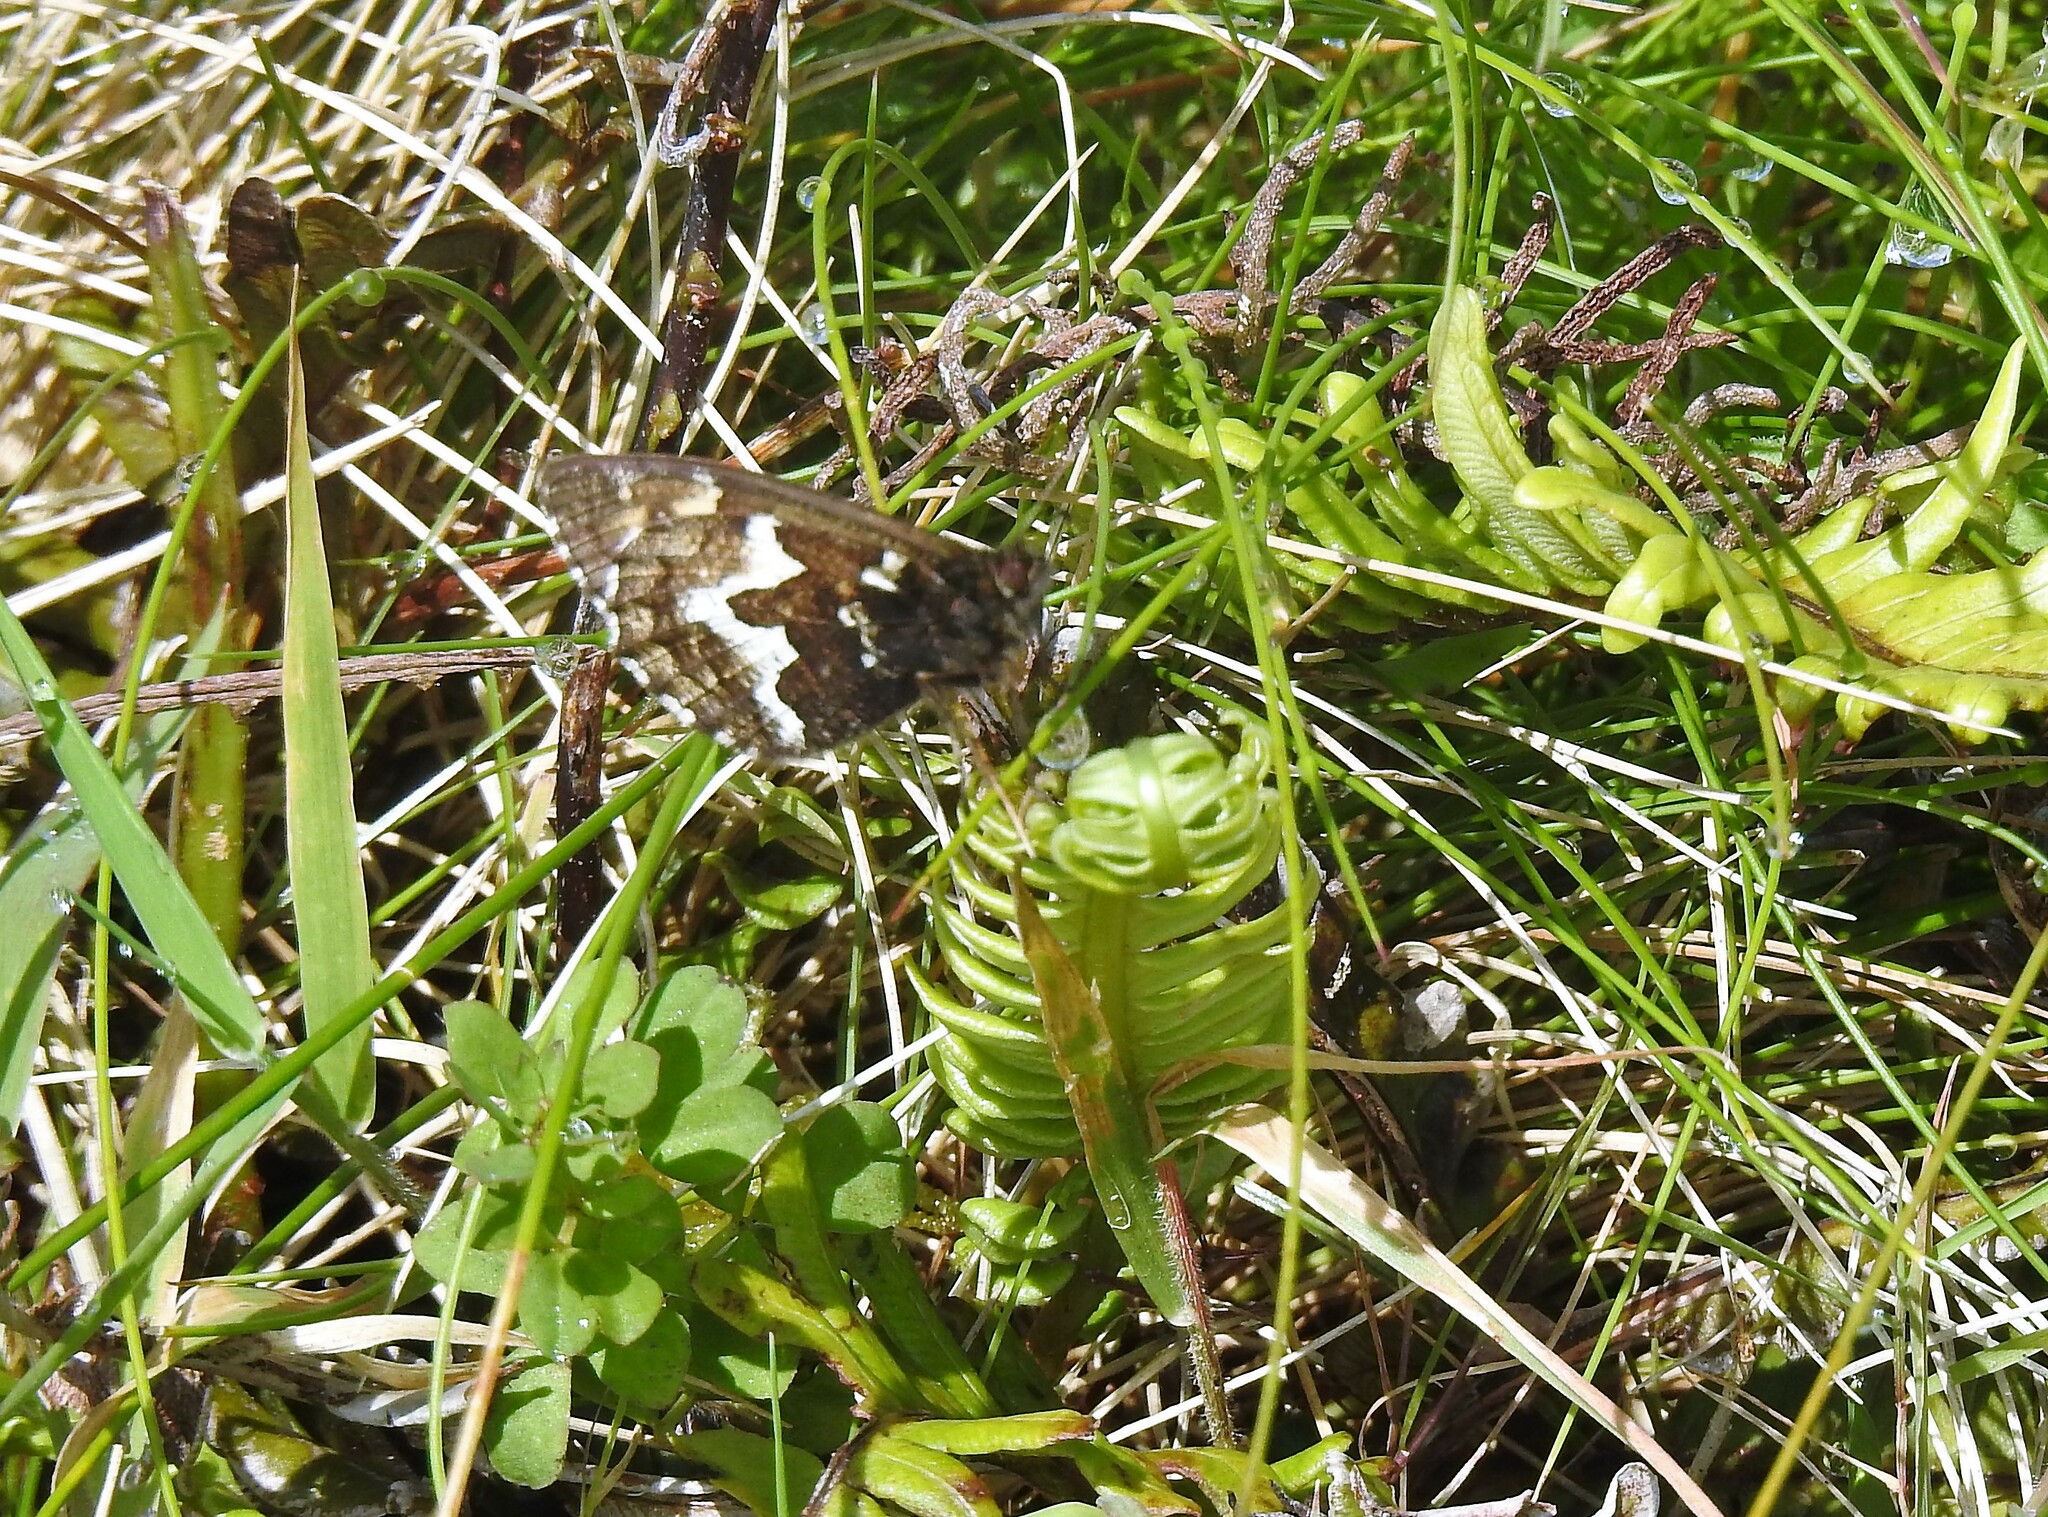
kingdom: Animalia
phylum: Arthropoda
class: Insecta
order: Lepidoptera
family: Nymphalidae
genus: Hipparchia
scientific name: Hipparchia azorinus
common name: Azores grayling
